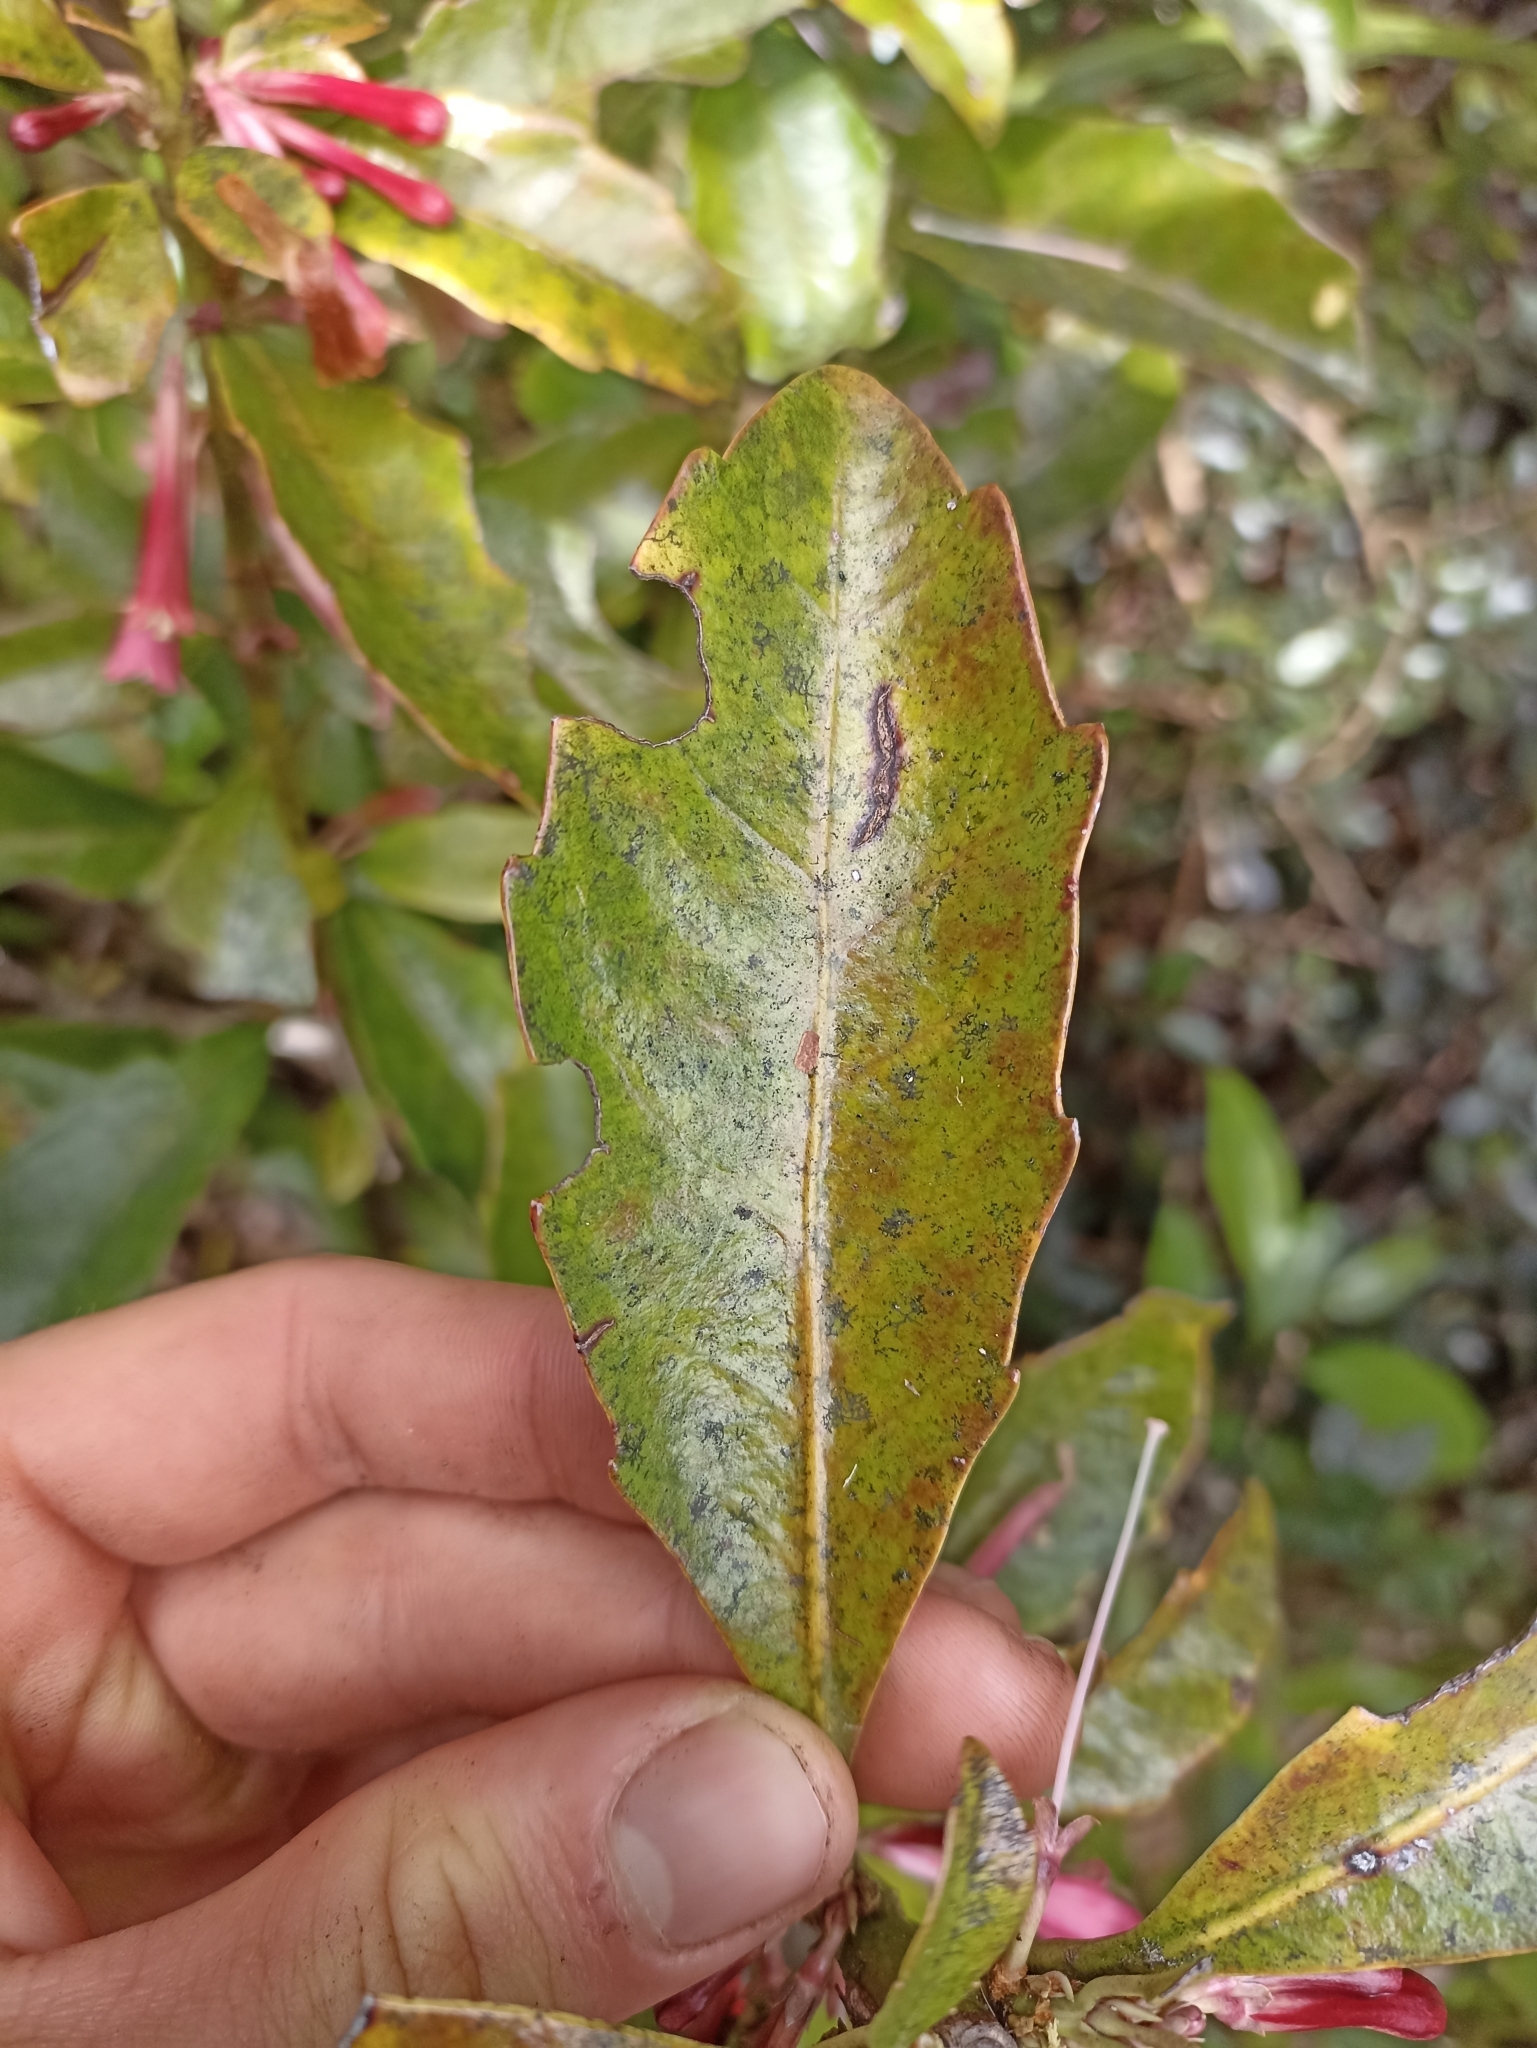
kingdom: Plantae
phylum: Tracheophyta
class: Magnoliopsida
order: Asterales
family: Alseuosmiaceae
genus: Alseuosmia
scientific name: Alseuosmia macrophylla
